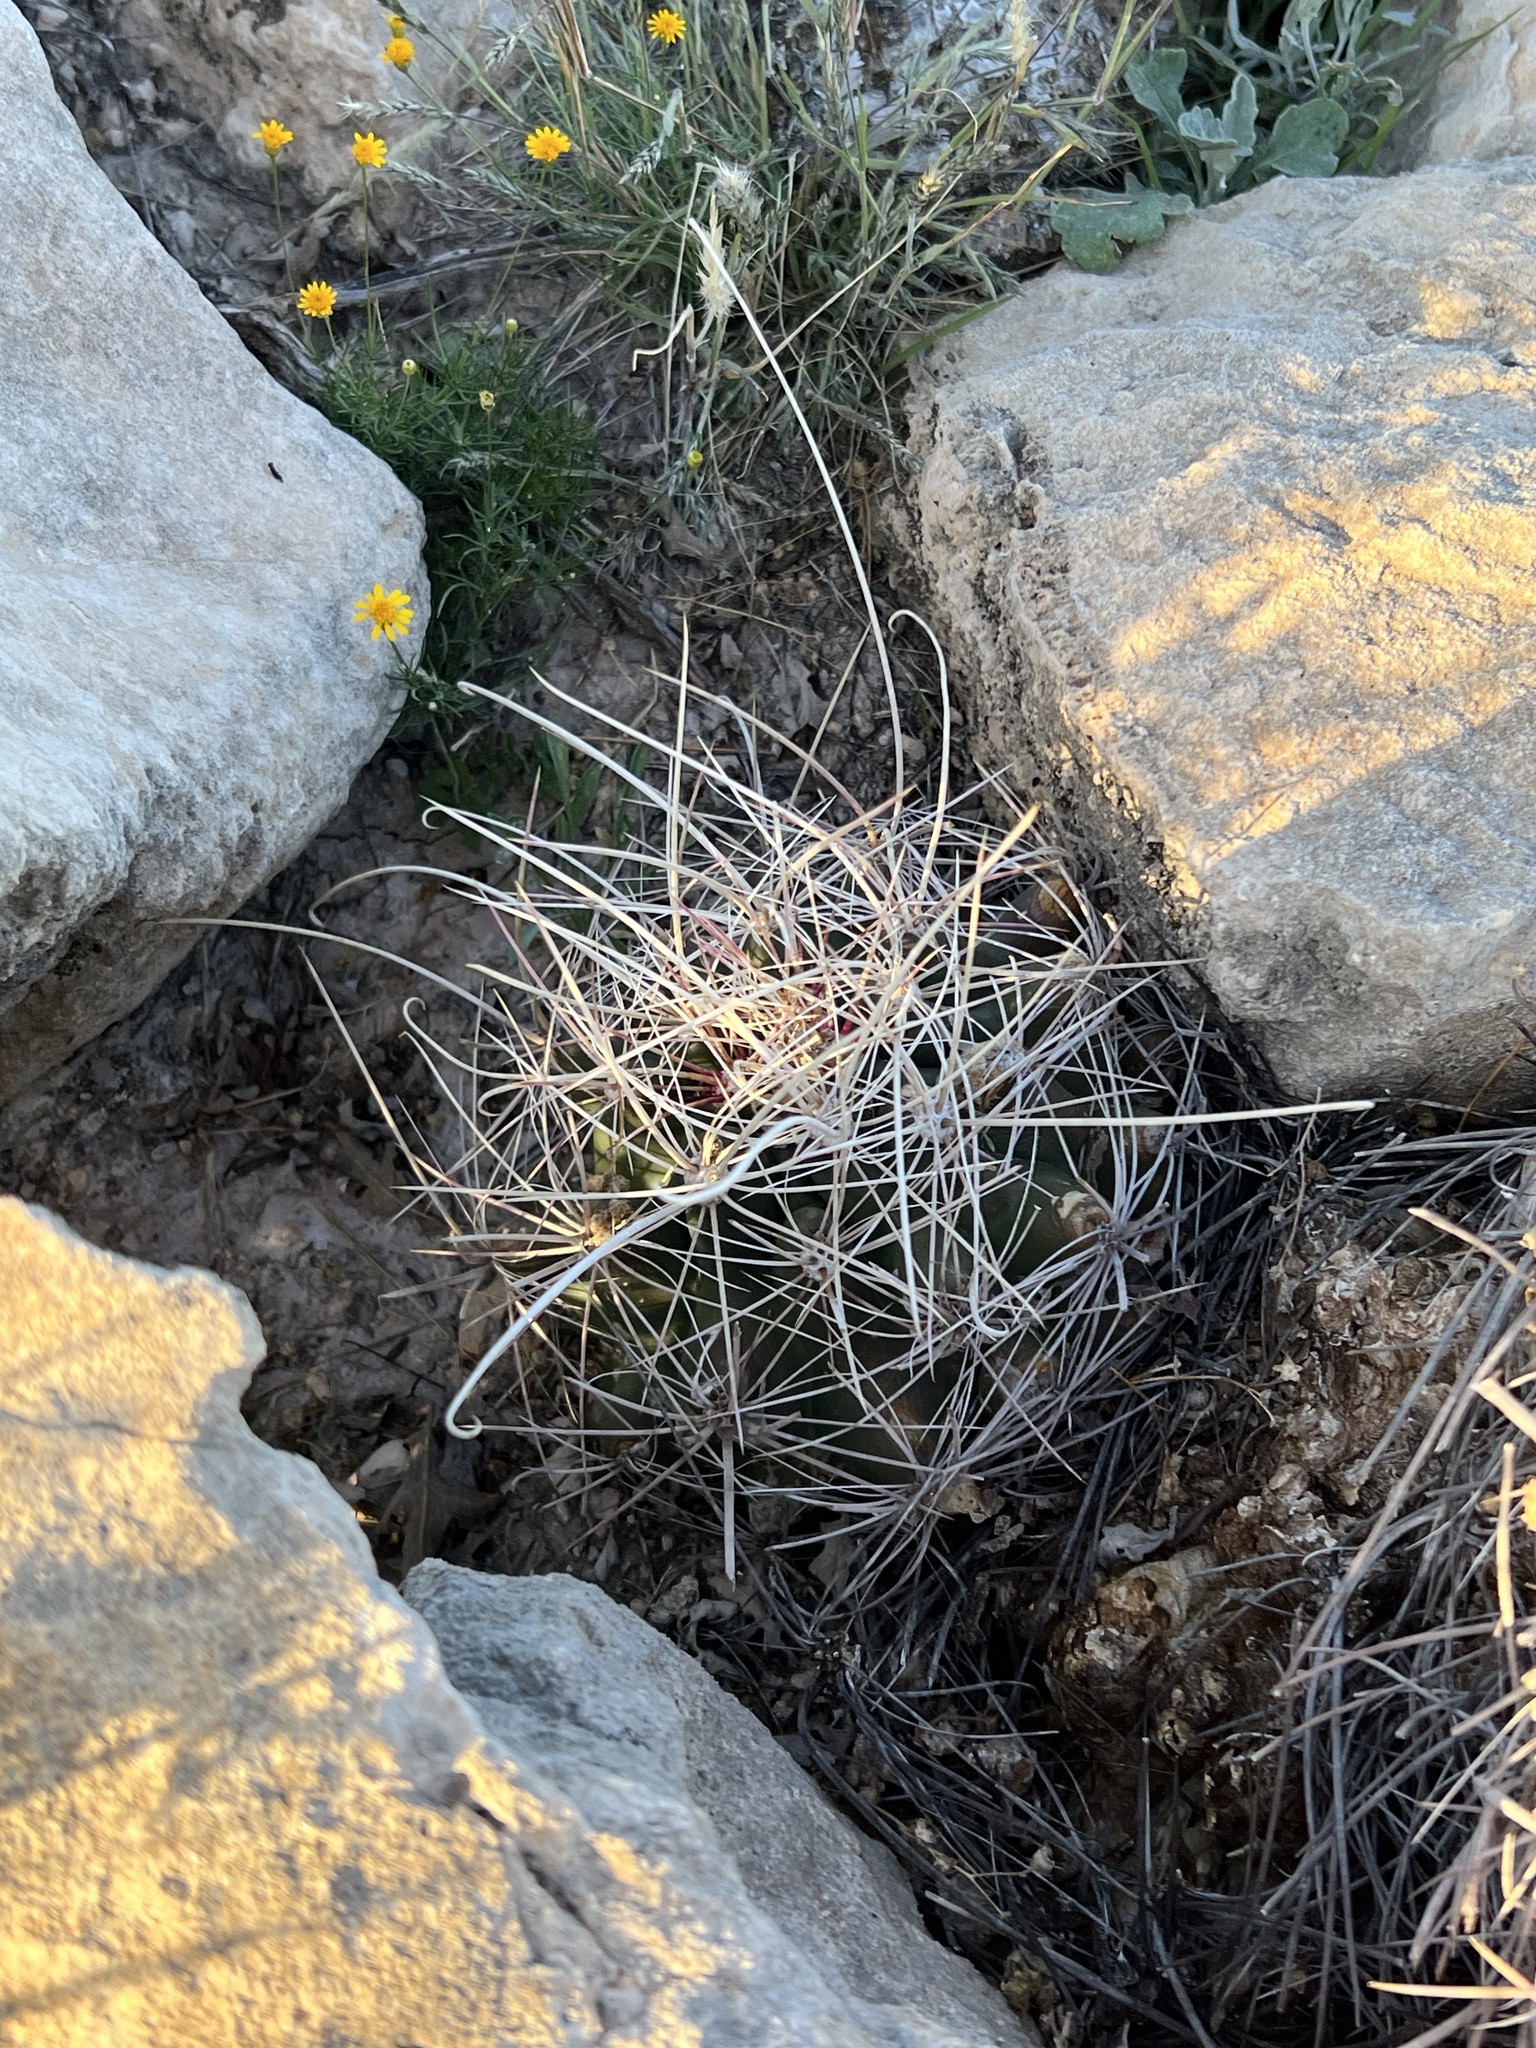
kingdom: Plantae
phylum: Tracheophyta
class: Magnoliopsida
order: Caryophyllales
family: Cactaceae
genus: Bisnaga
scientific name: Bisnaga hamatacantha
